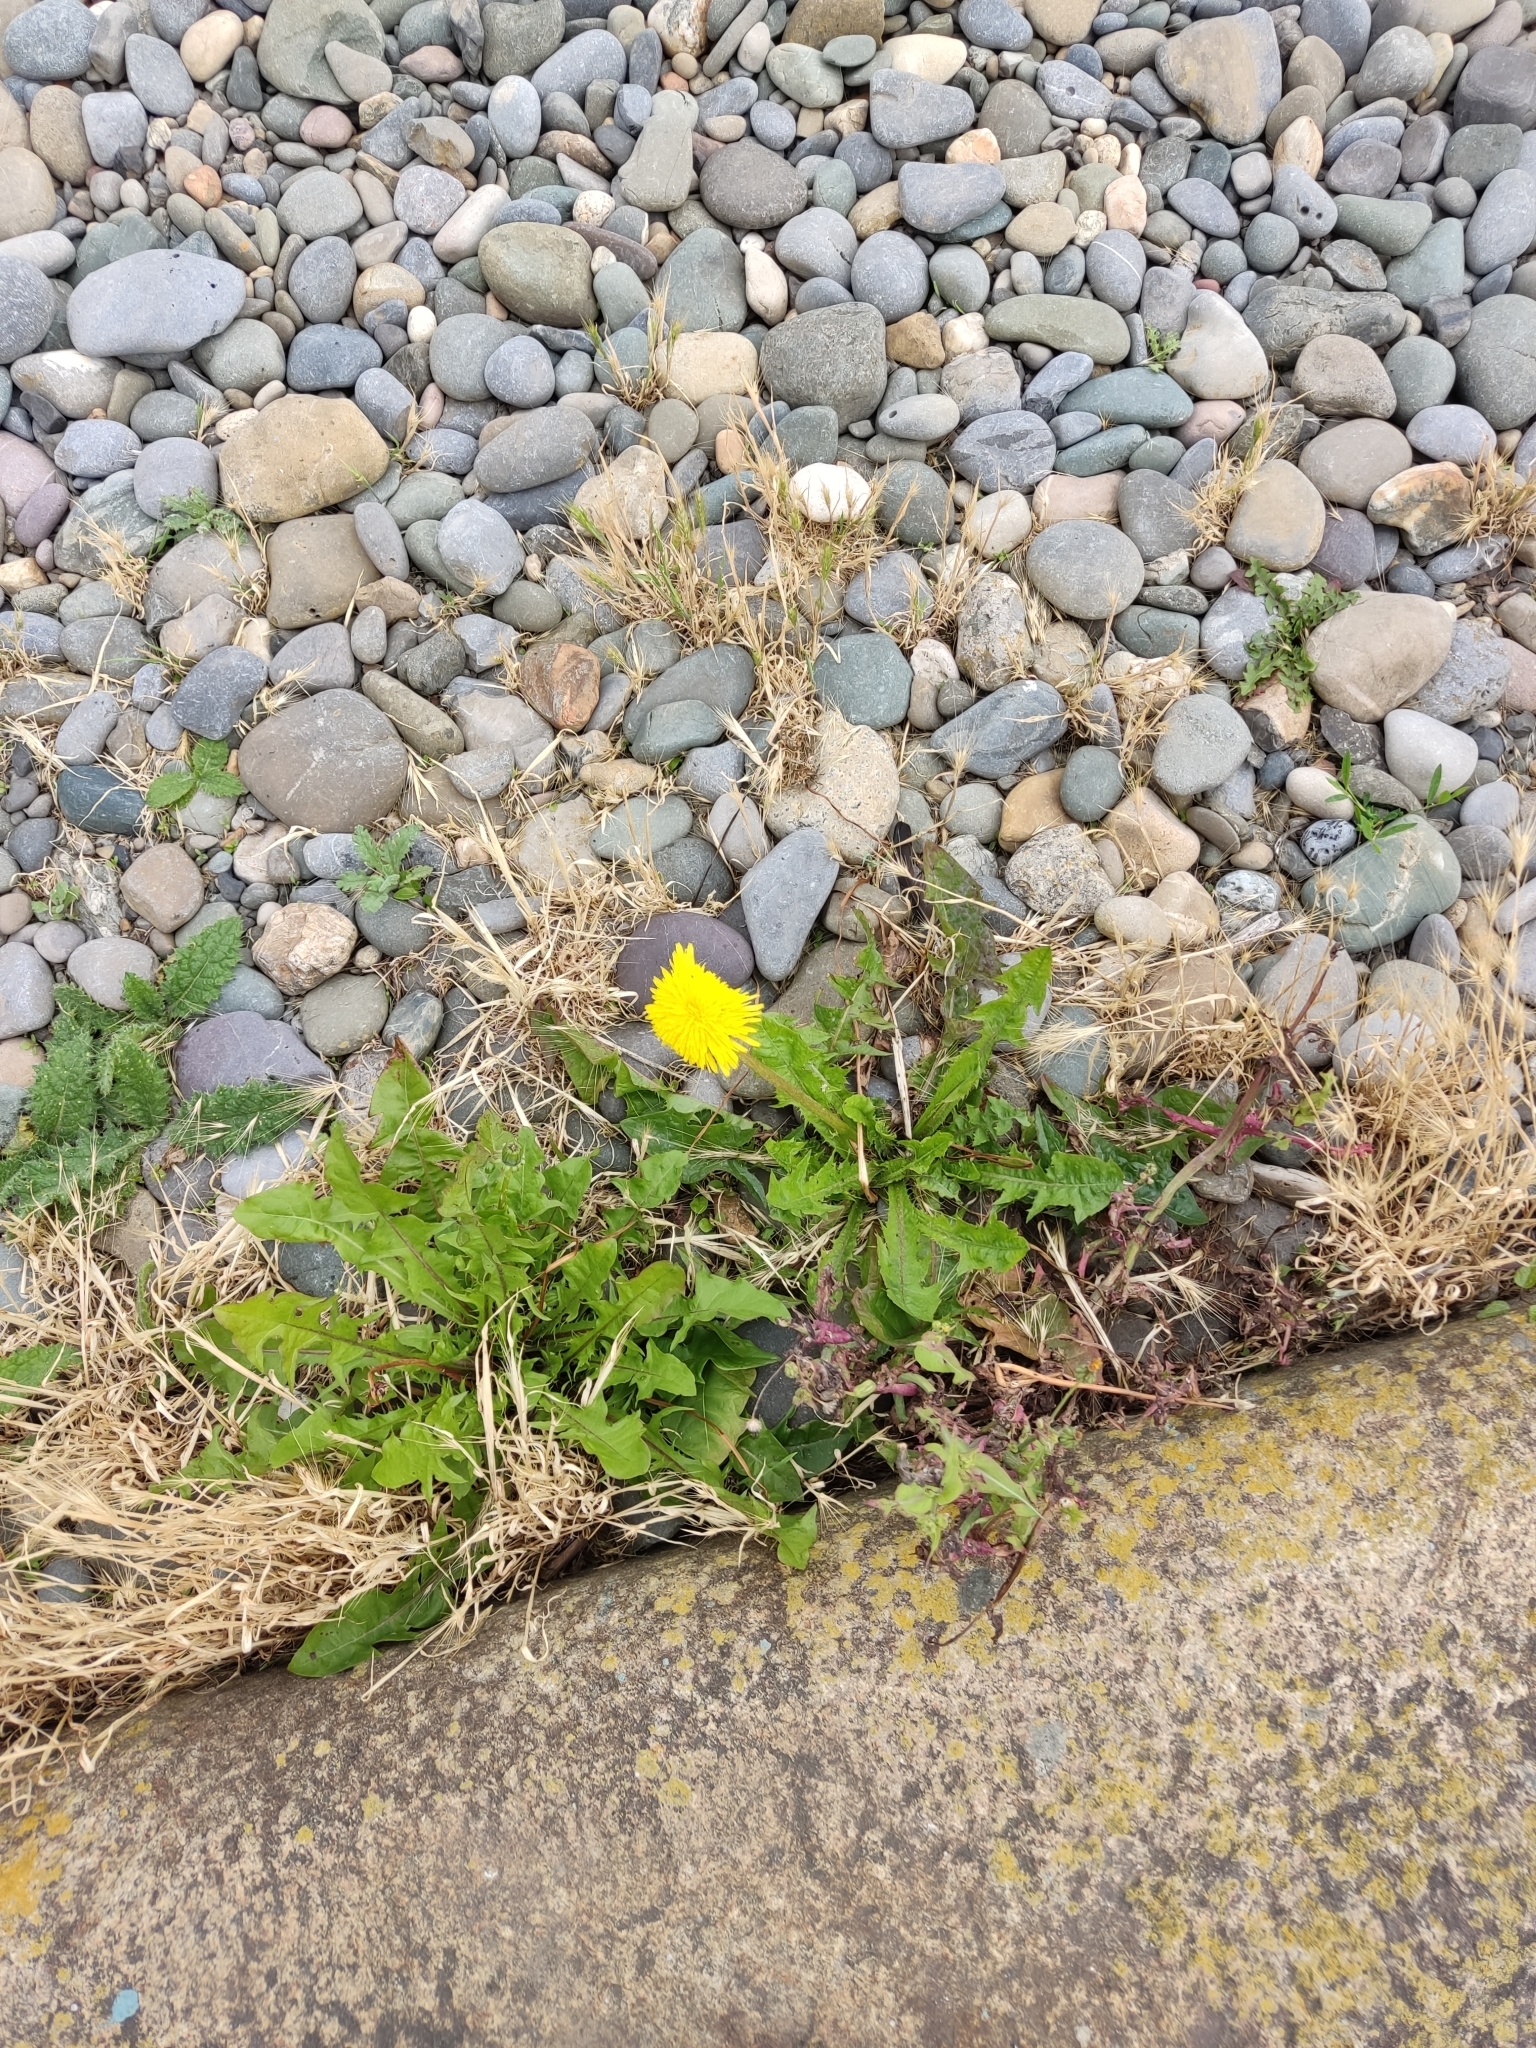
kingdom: Plantae
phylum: Tracheophyta
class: Magnoliopsida
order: Asterales
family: Asteraceae
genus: Taraxacum
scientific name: Taraxacum officinale
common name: Common dandelion
